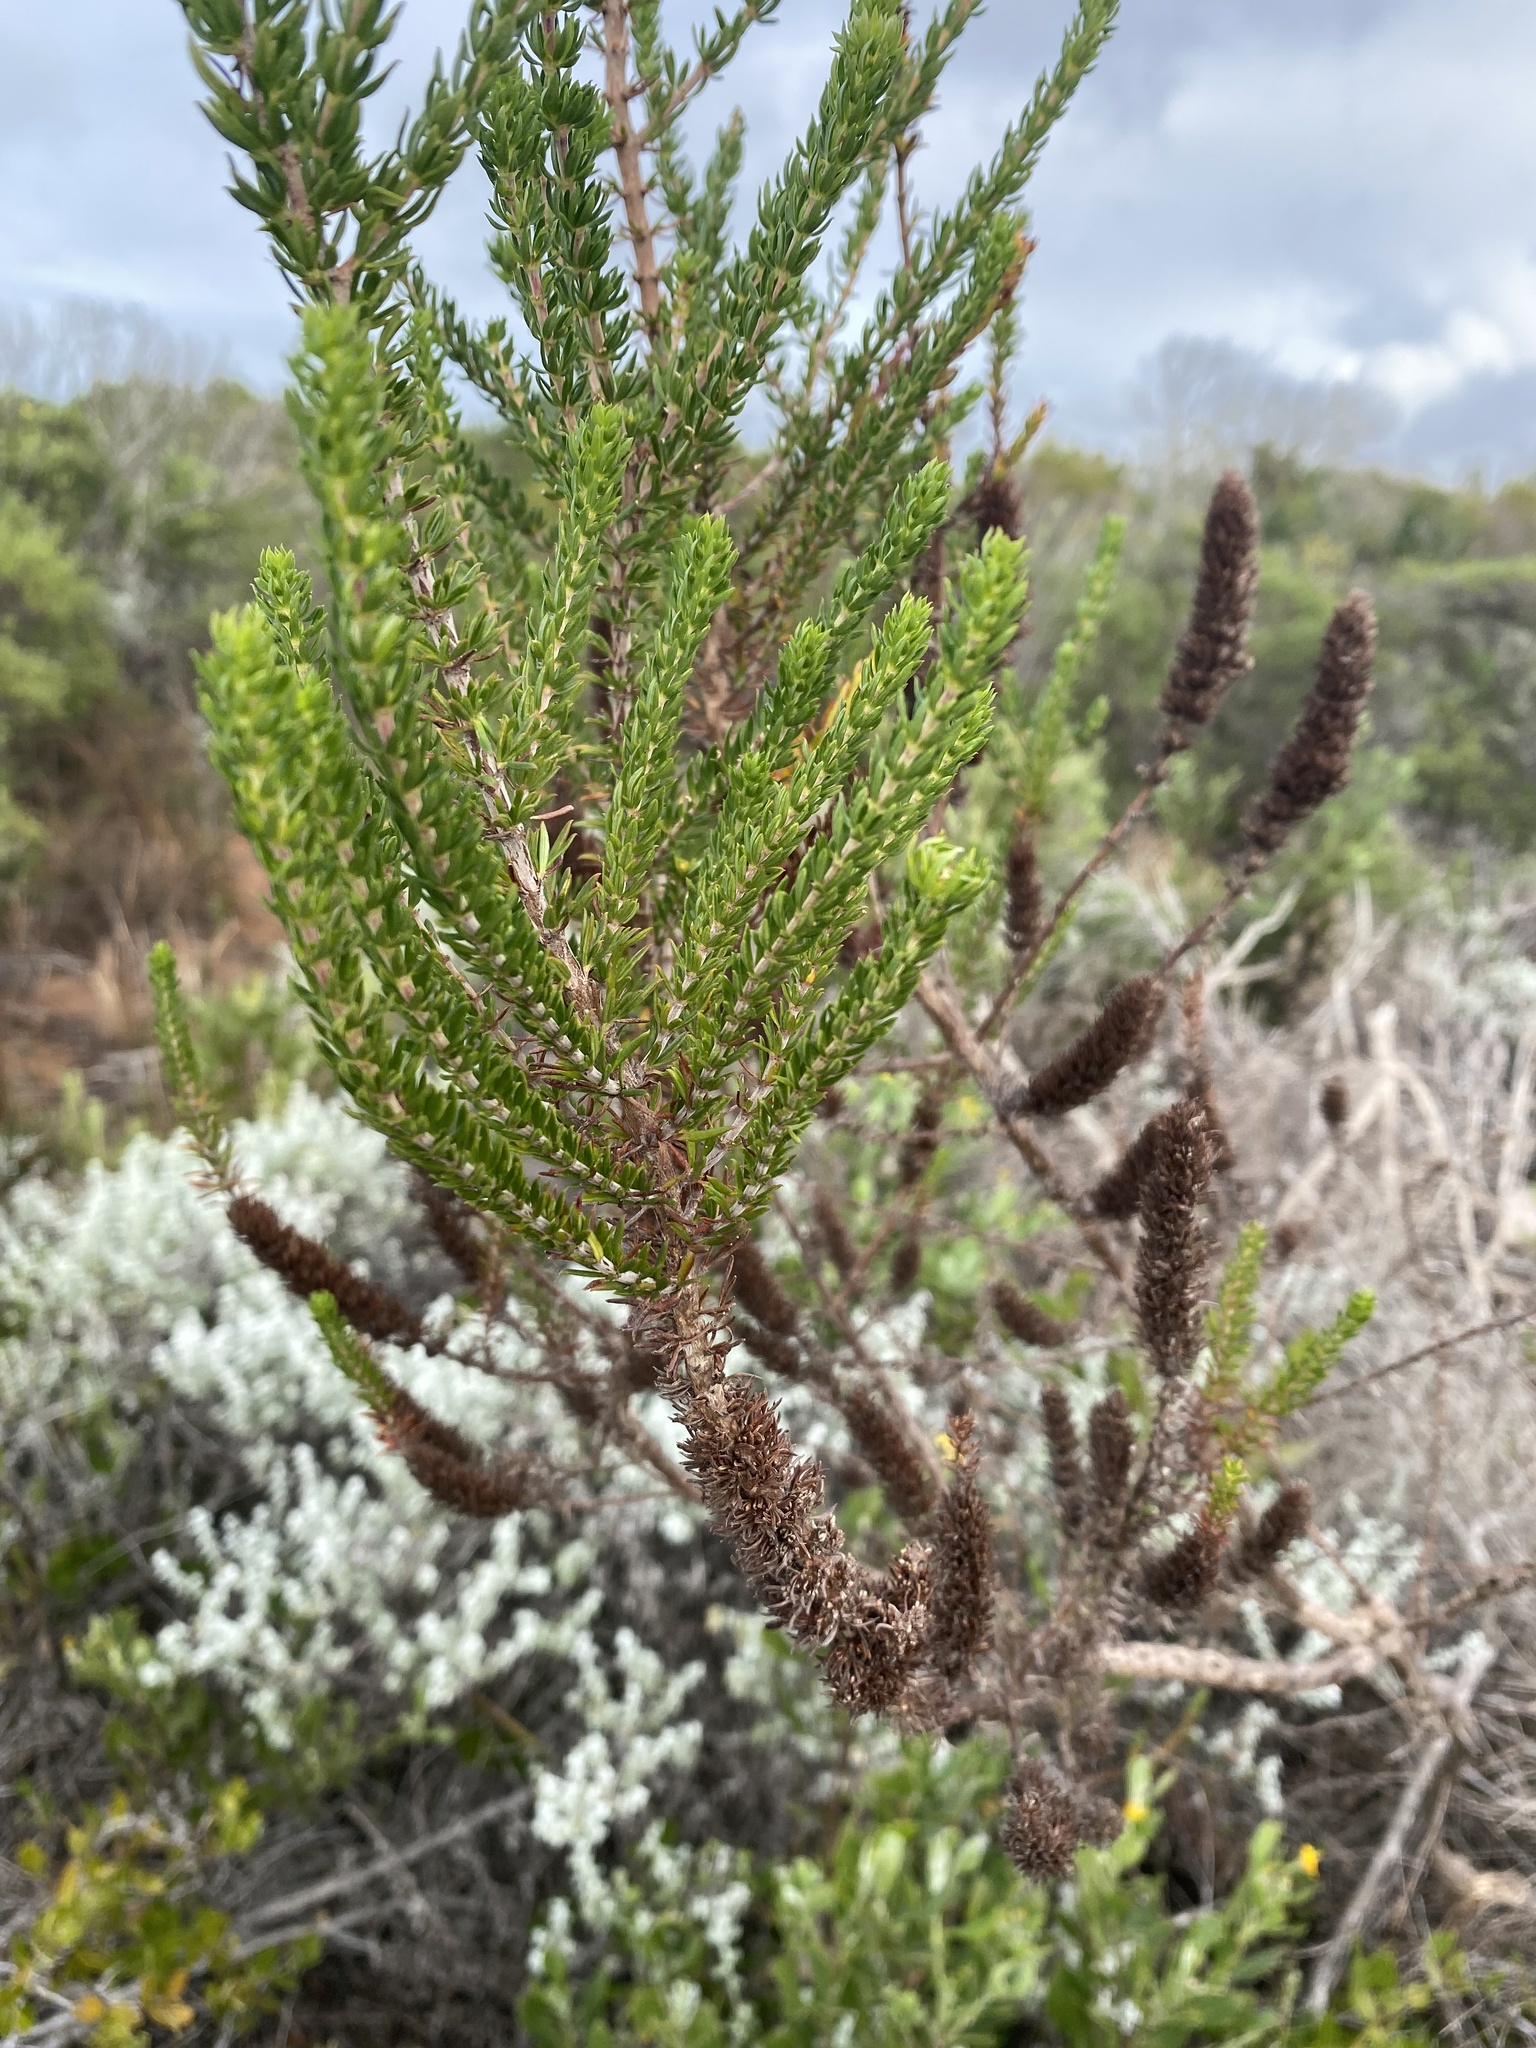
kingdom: Plantae
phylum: Tracheophyta
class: Magnoliopsida
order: Gentianales
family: Rubiaceae
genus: Anthospermum
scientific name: Anthospermum aethiopicum
